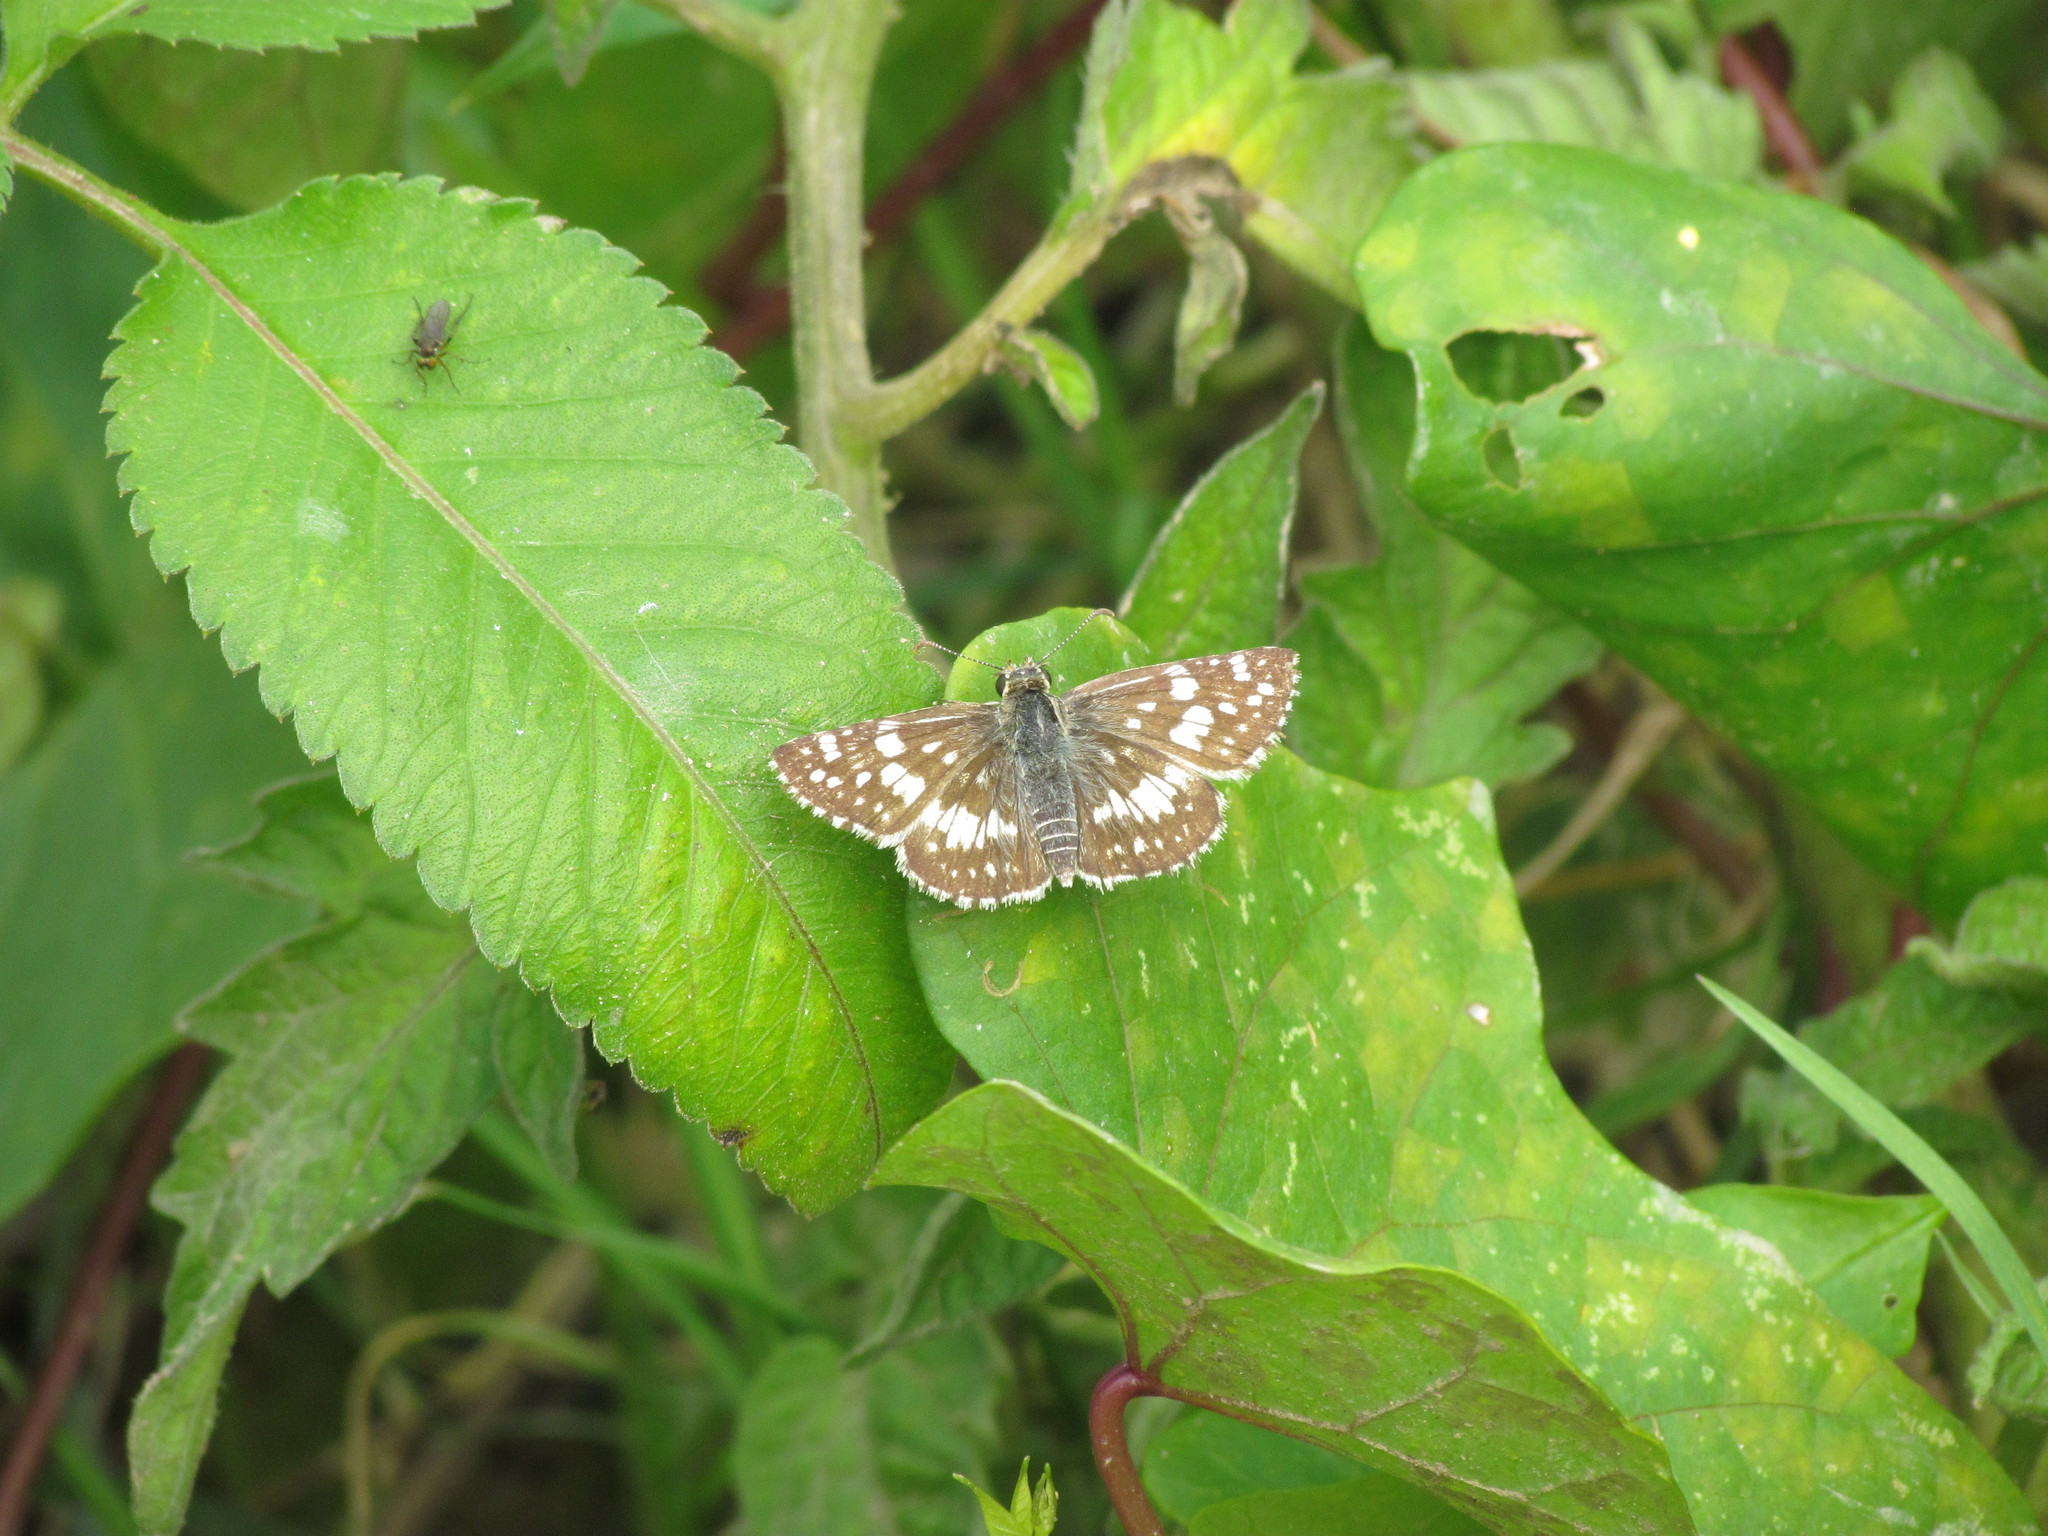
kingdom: Animalia
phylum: Arthropoda
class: Insecta
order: Lepidoptera
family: Hesperiidae
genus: Burnsius
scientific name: Burnsius orcynoides
